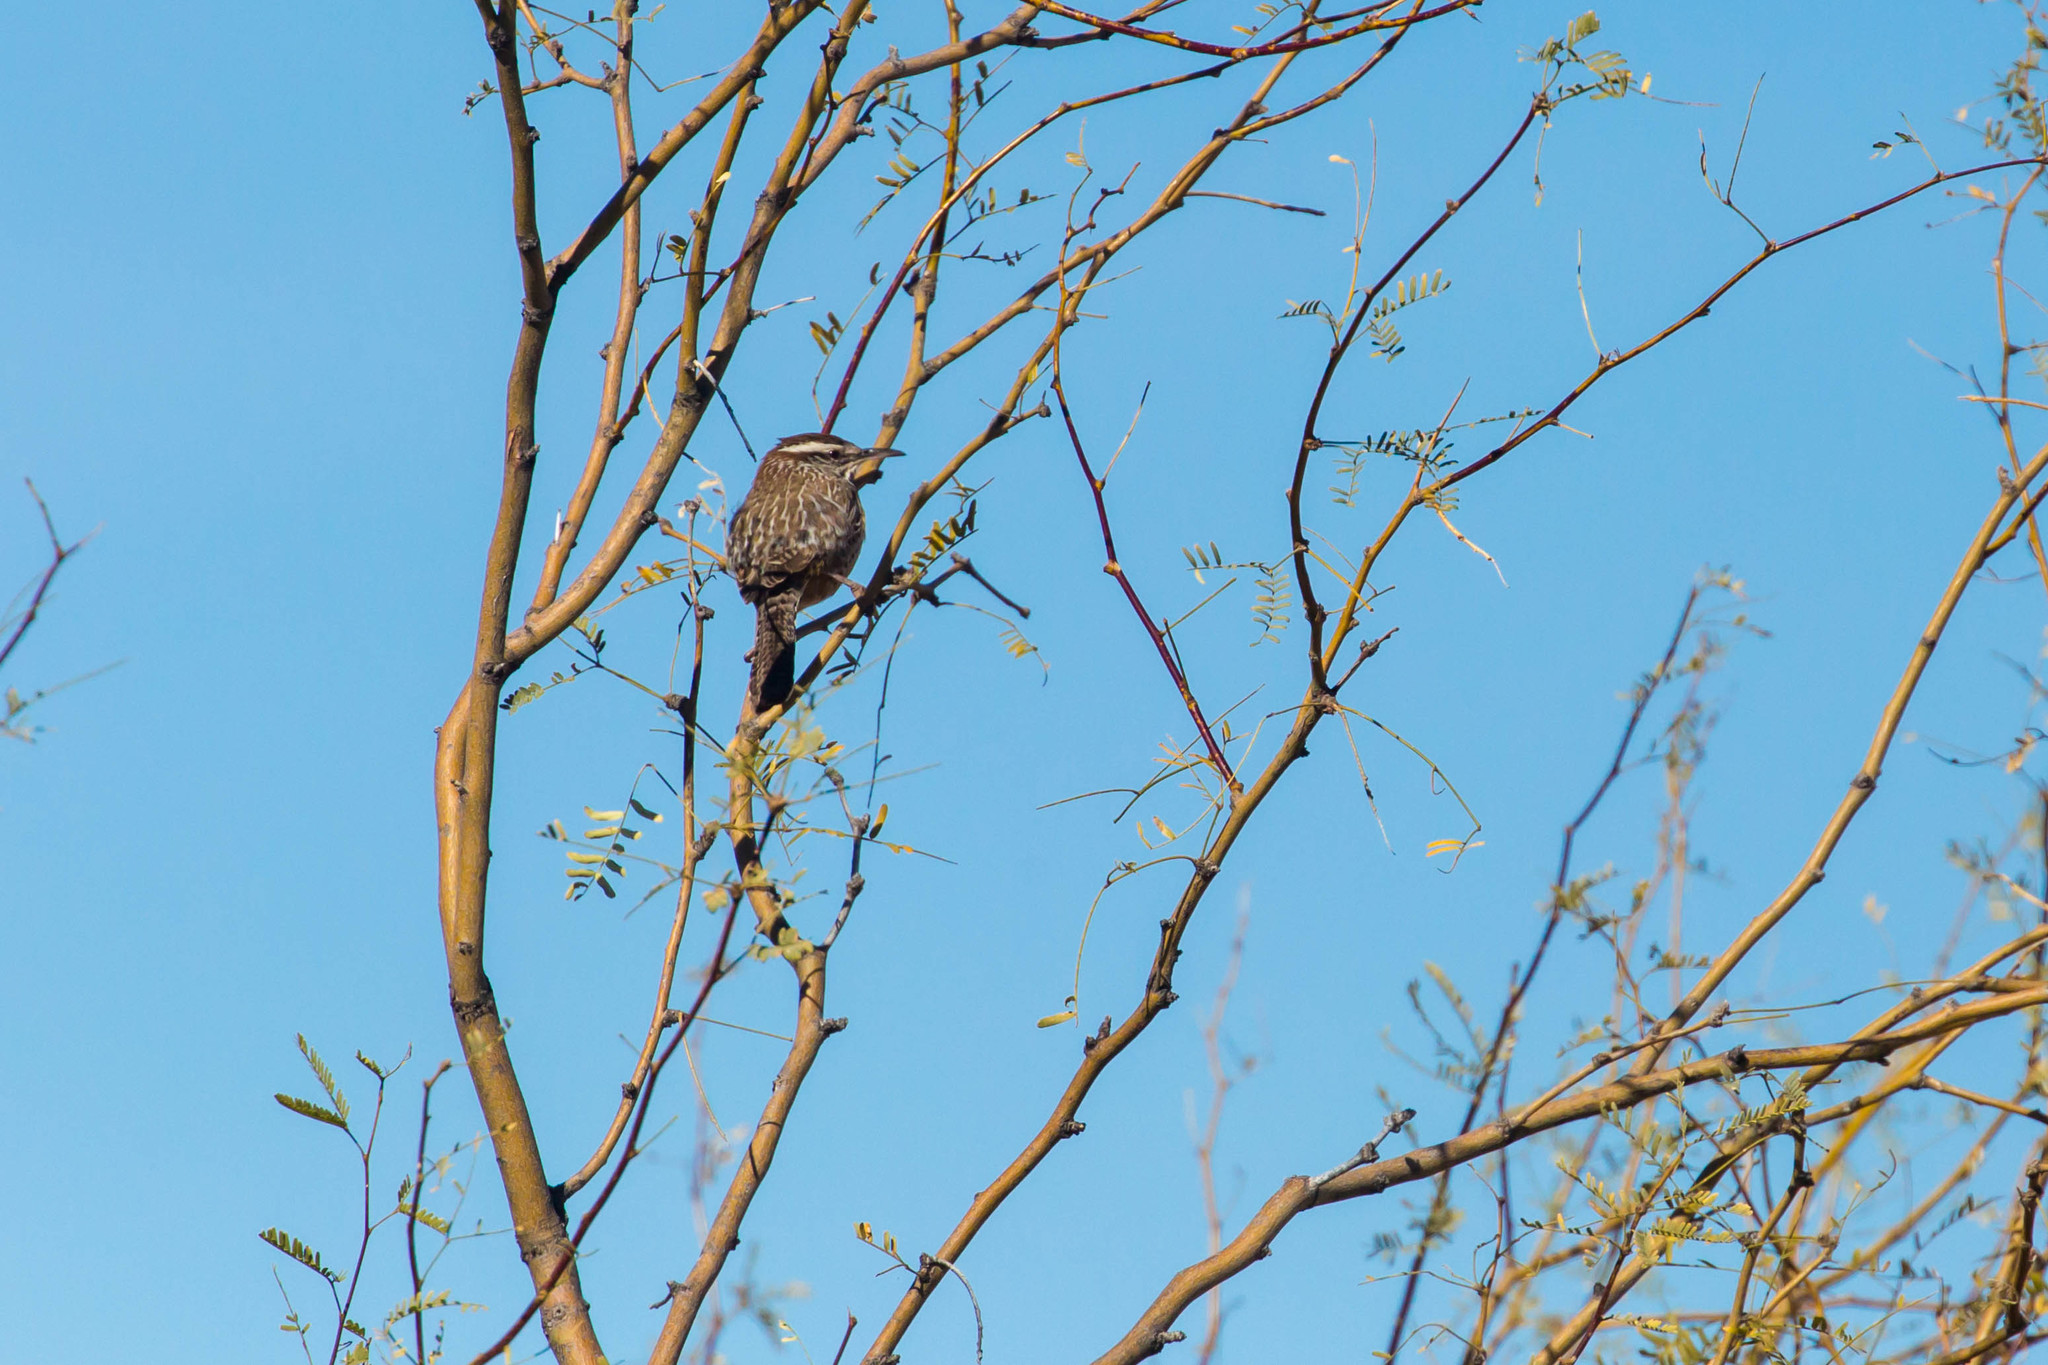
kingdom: Animalia
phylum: Chordata
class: Aves
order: Passeriformes
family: Troglodytidae
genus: Campylorhynchus
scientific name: Campylorhynchus brunneicapillus
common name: Cactus wren
